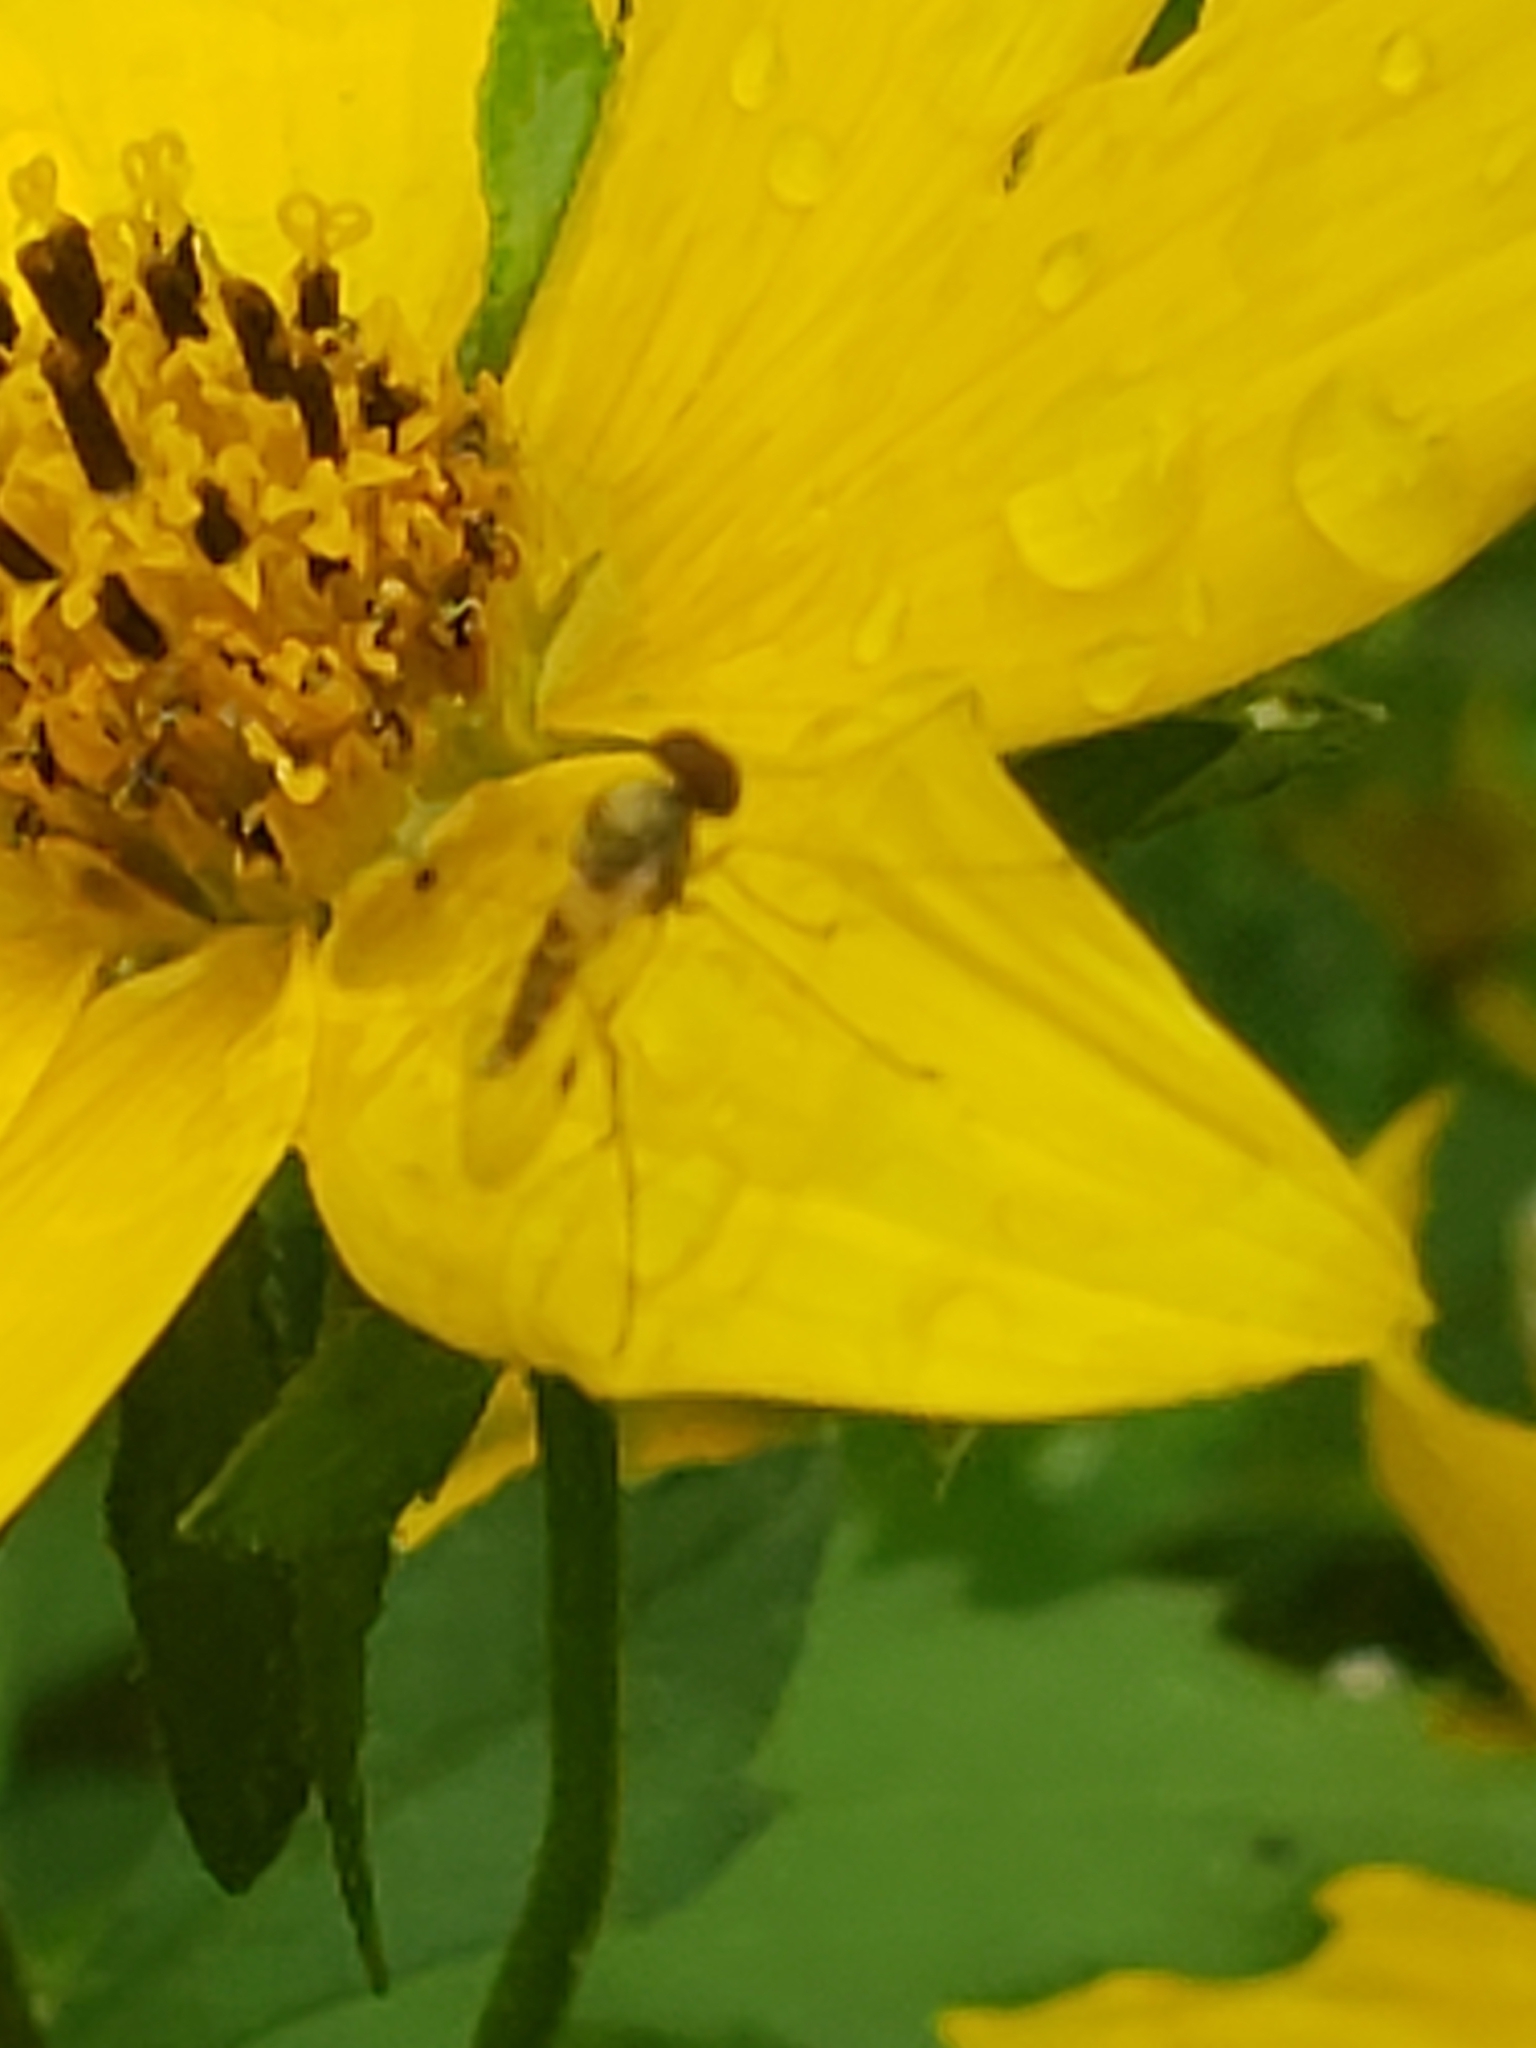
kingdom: Animalia
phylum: Arthropoda
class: Insecta
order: Diptera
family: Rhagionidae
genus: Chrysopilus
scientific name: Chrysopilus modestus
